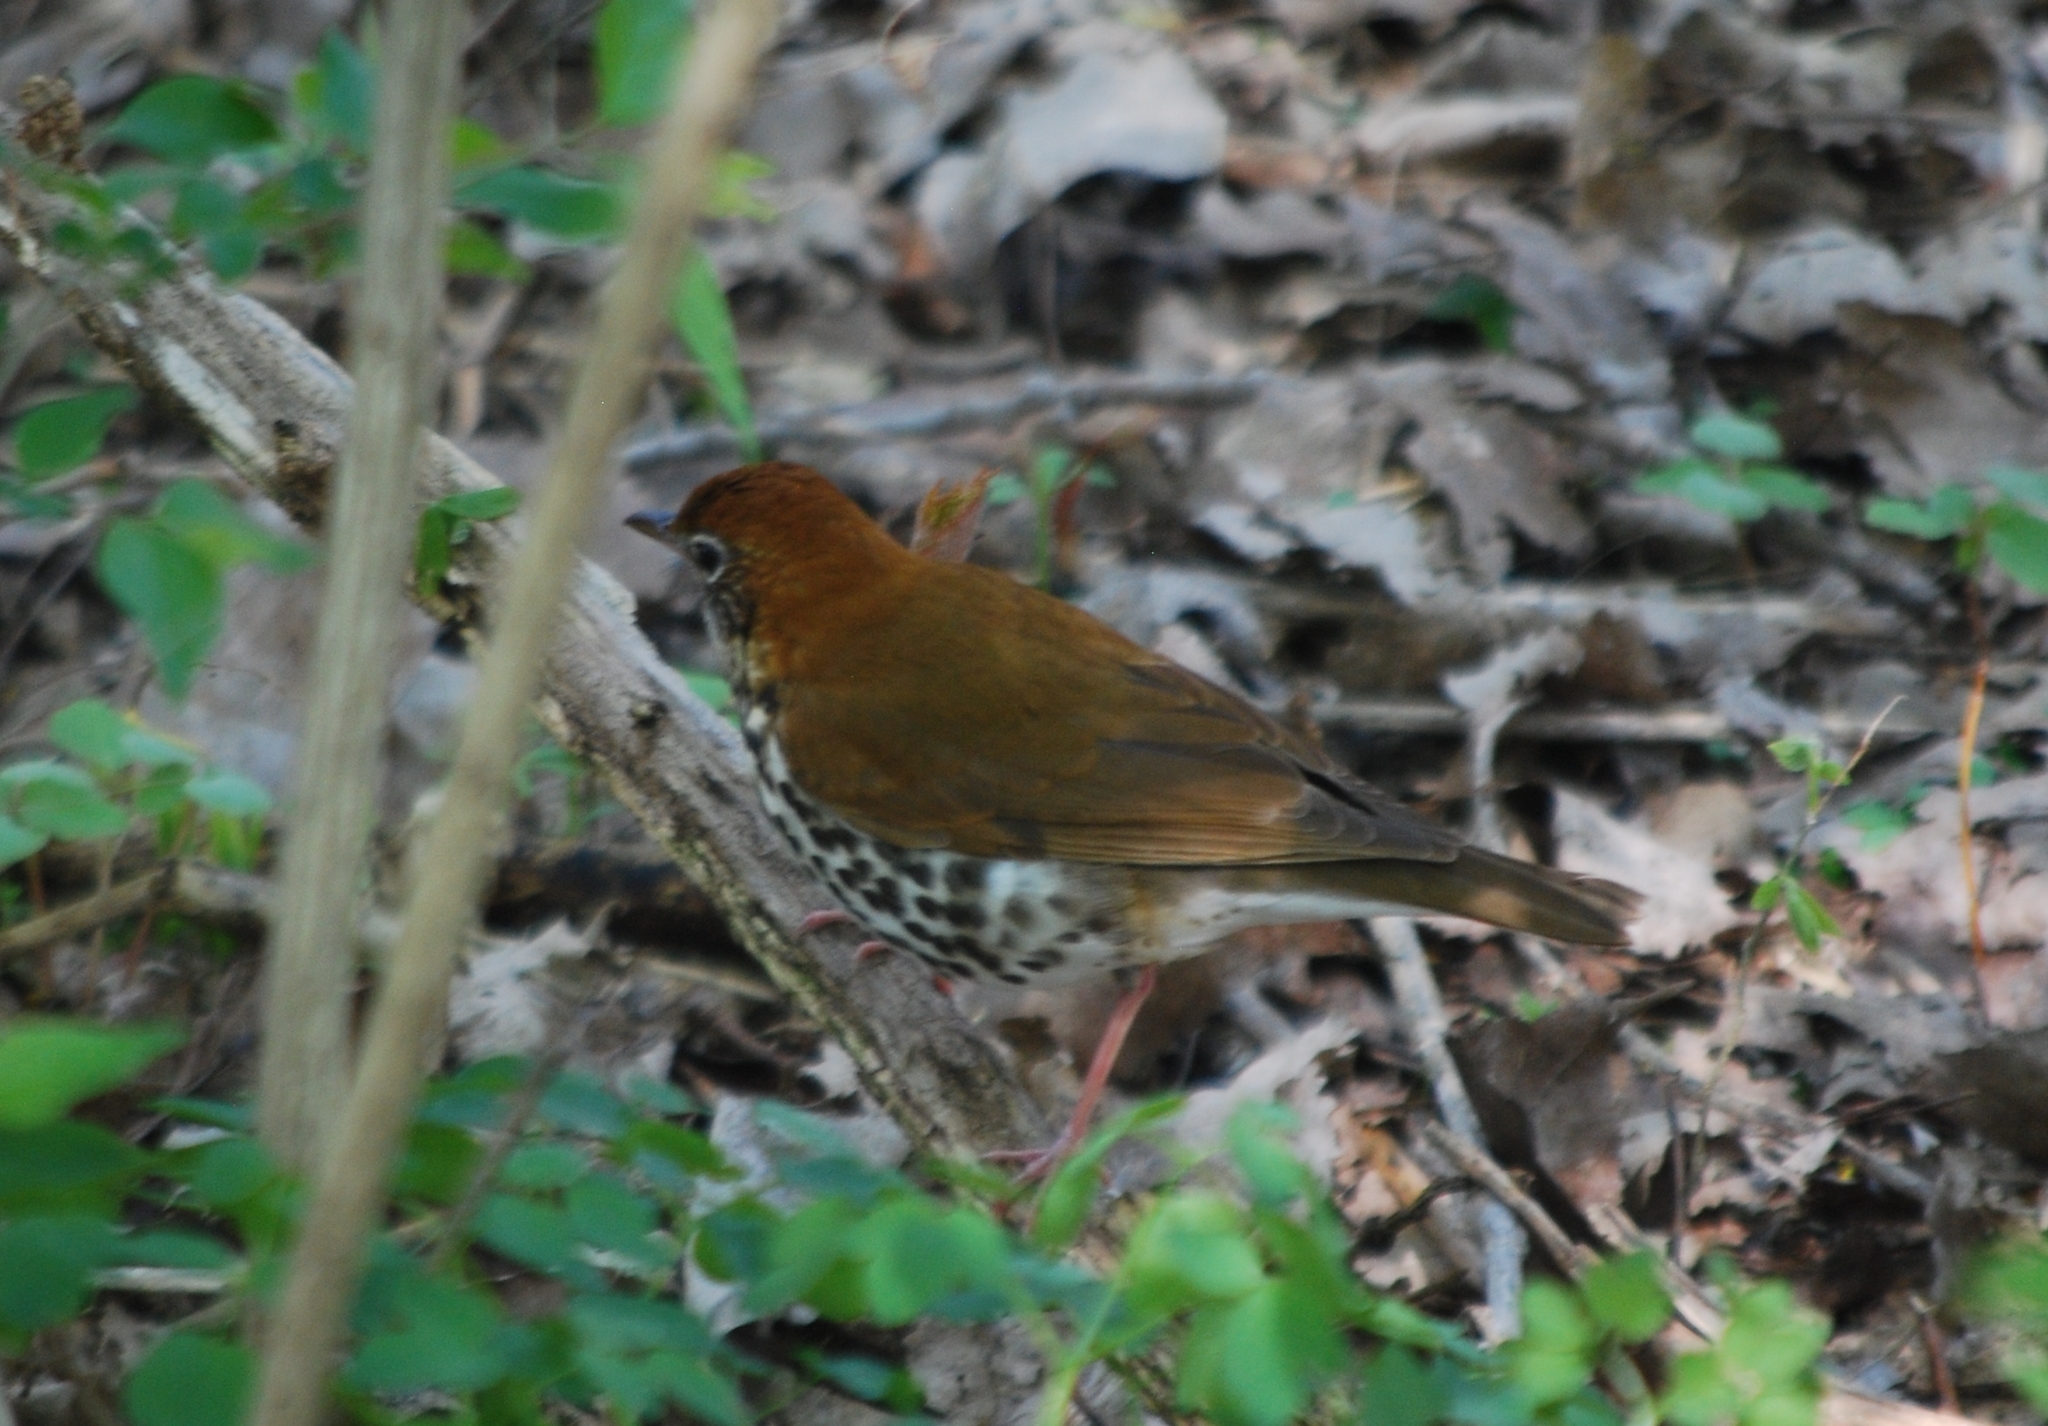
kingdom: Animalia
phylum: Chordata
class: Aves
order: Passeriformes
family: Turdidae
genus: Hylocichla
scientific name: Hylocichla mustelina
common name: Wood thrush
